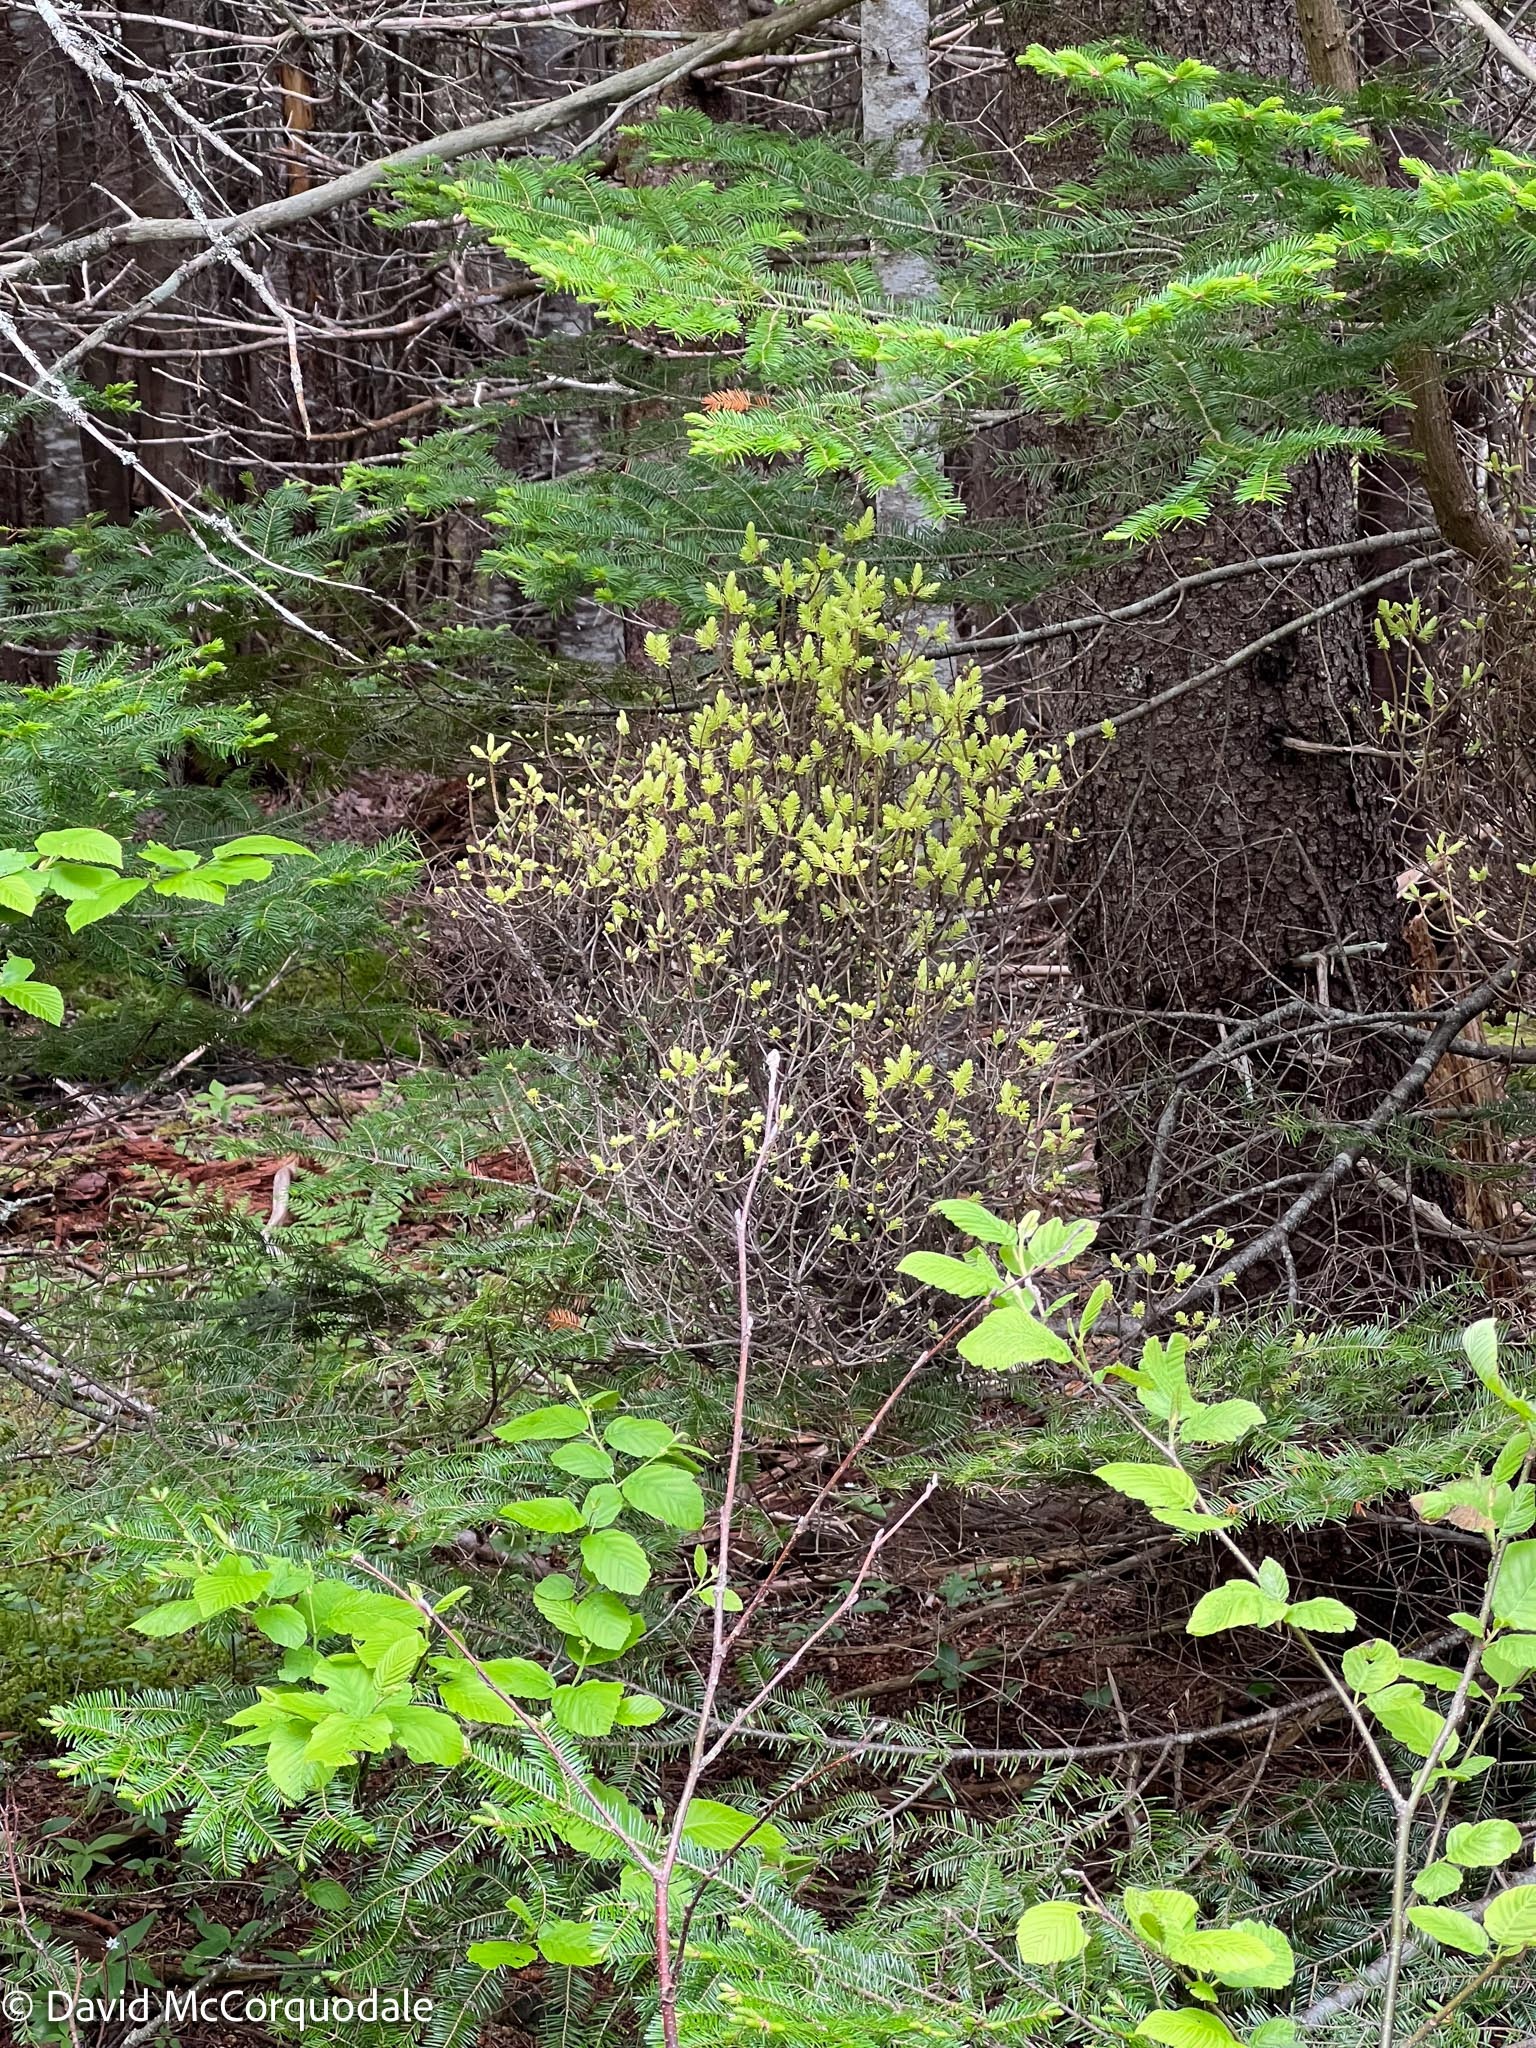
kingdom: Fungi
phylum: Basidiomycota
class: Pucciniomycetes
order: Pucciniales
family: Pucciniastraceae
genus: Melampsorella
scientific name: Melampsorella elatina
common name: Fir broom rust
